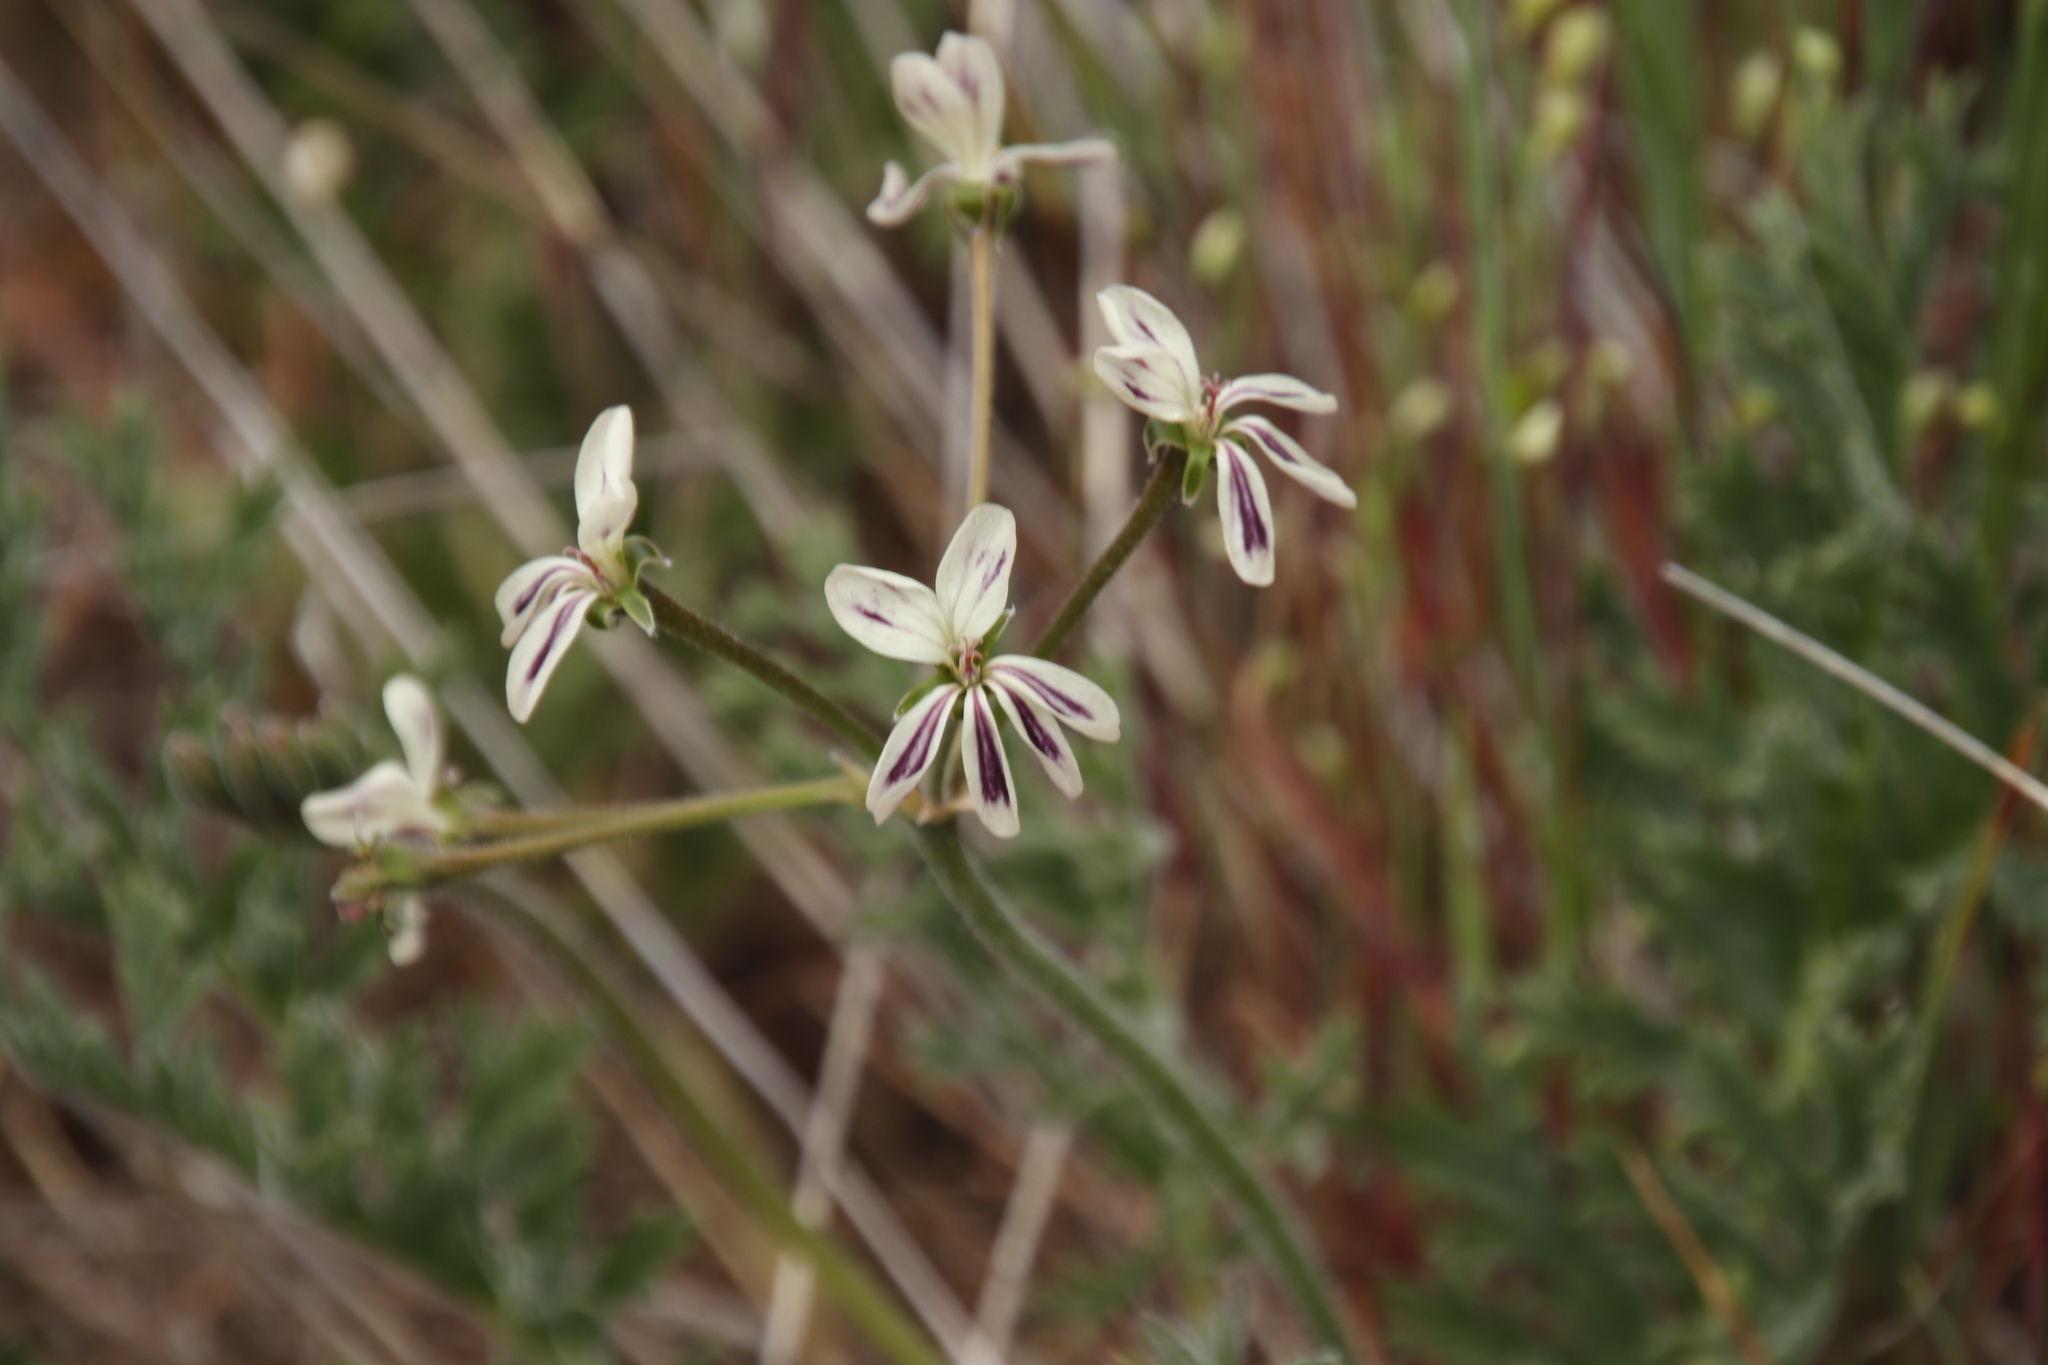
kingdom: Plantae
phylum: Tracheophyta
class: Magnoliopsida
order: Geraniales
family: Geraniaceae
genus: Pelargonium
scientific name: Pelargonium triste
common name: Night-scent pelargonium
